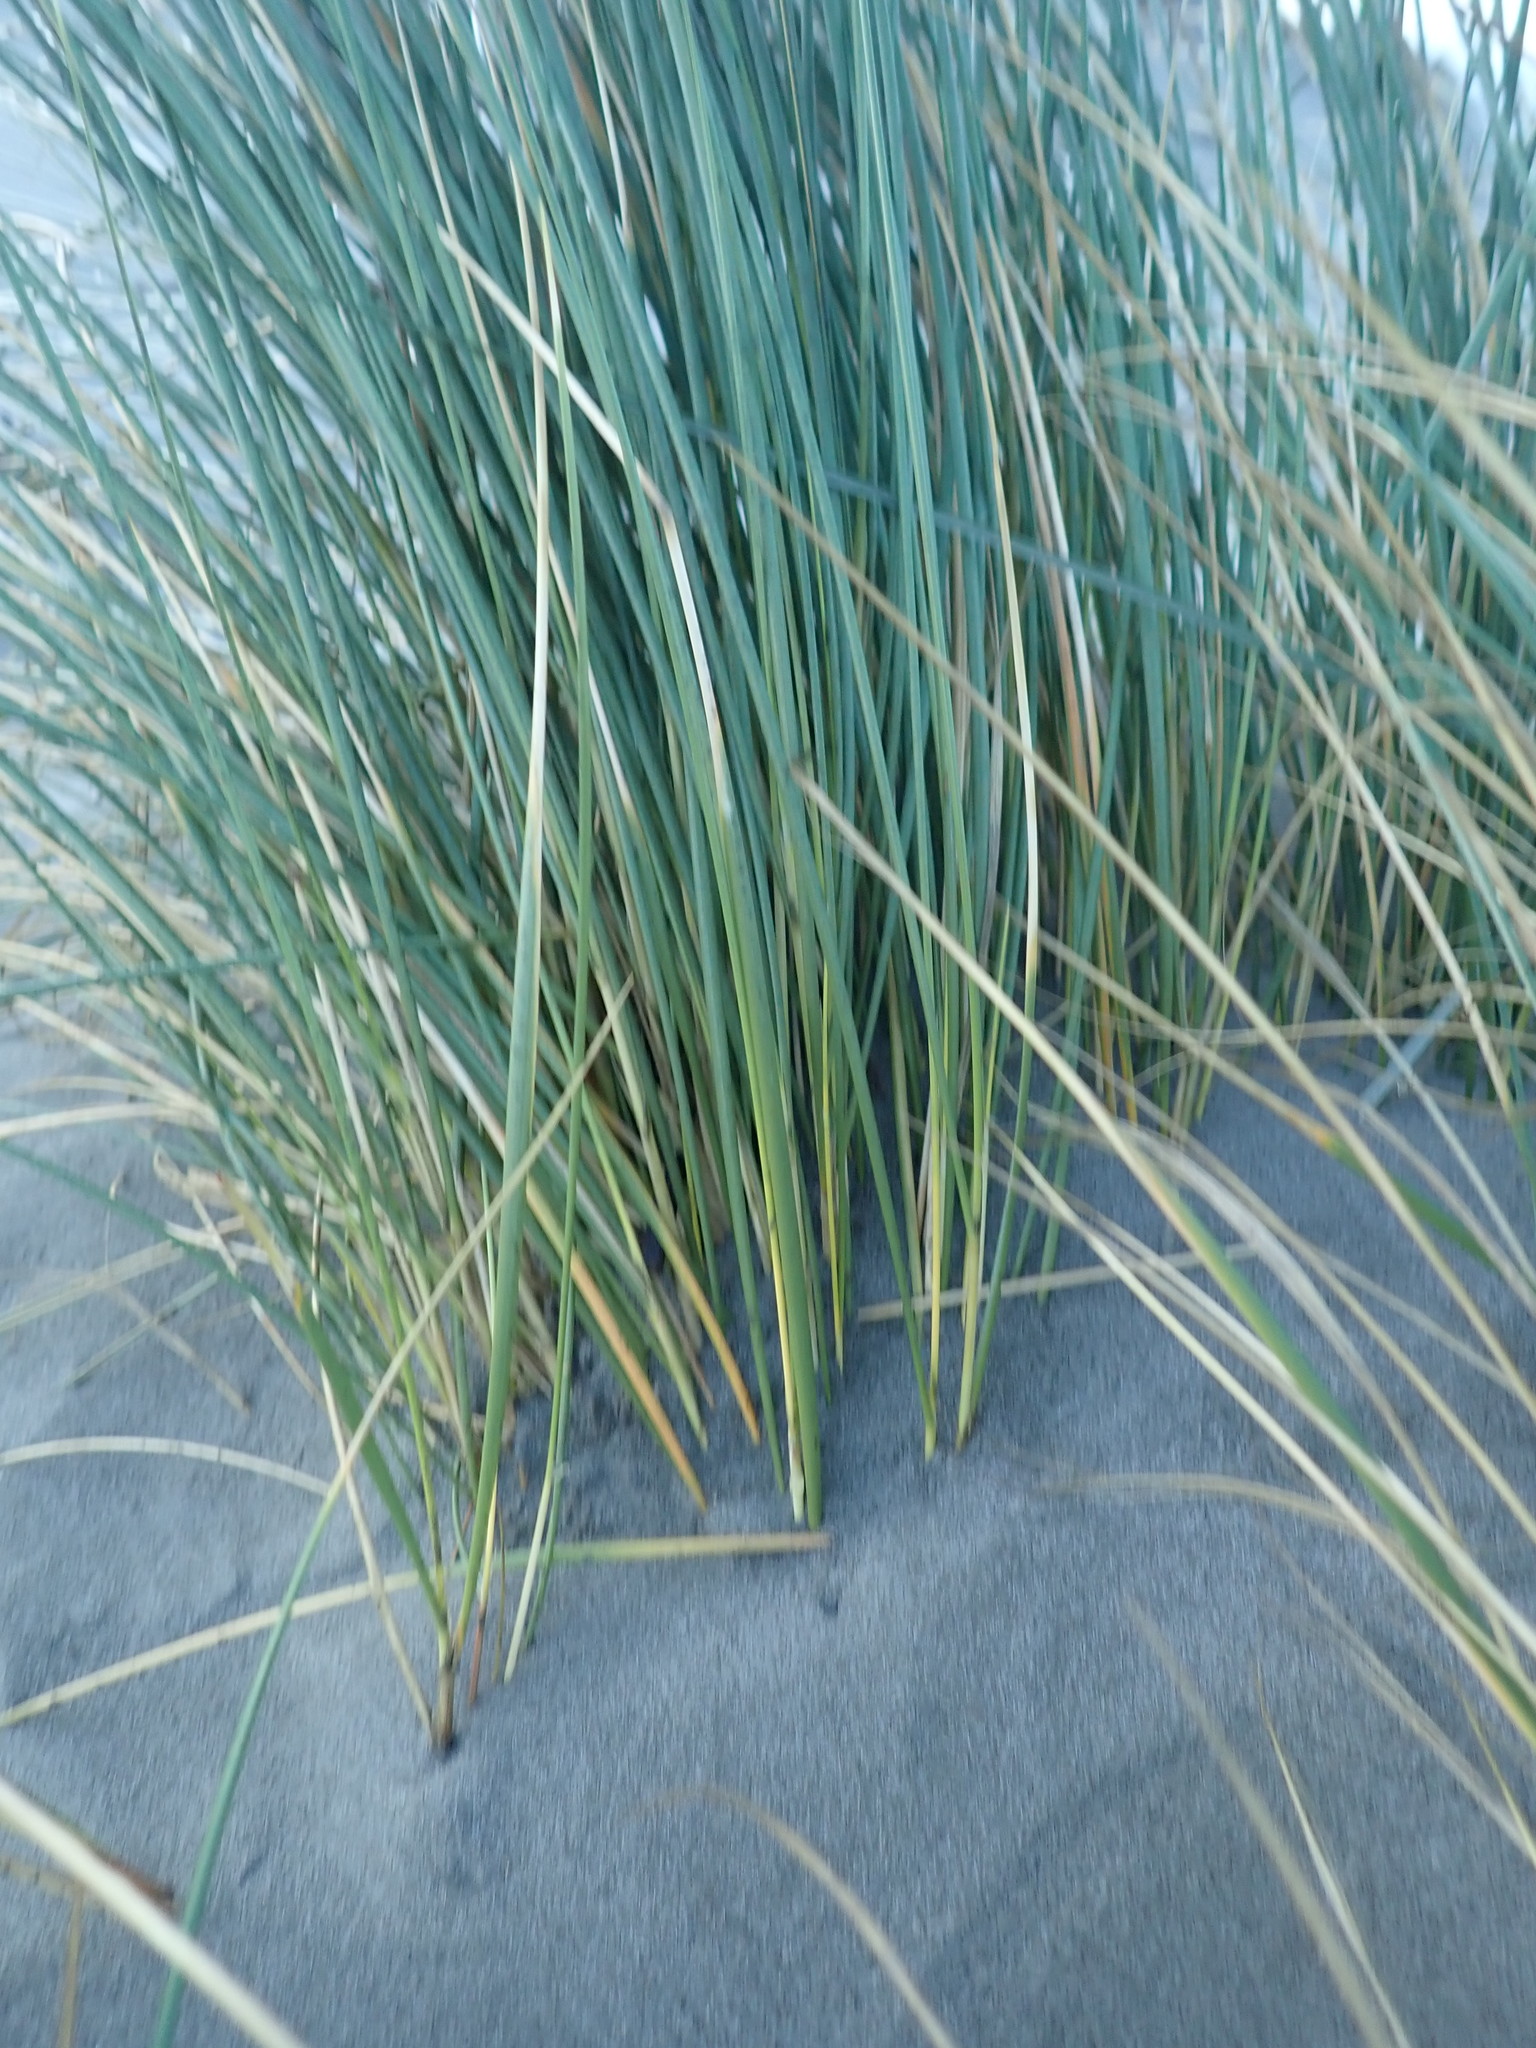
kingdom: Plantae
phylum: Tracheophyta
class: Liliopsida
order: Poales
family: Poaceae
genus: Calamagrostis
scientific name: Calamagrostis arenaria
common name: European beachgrass
